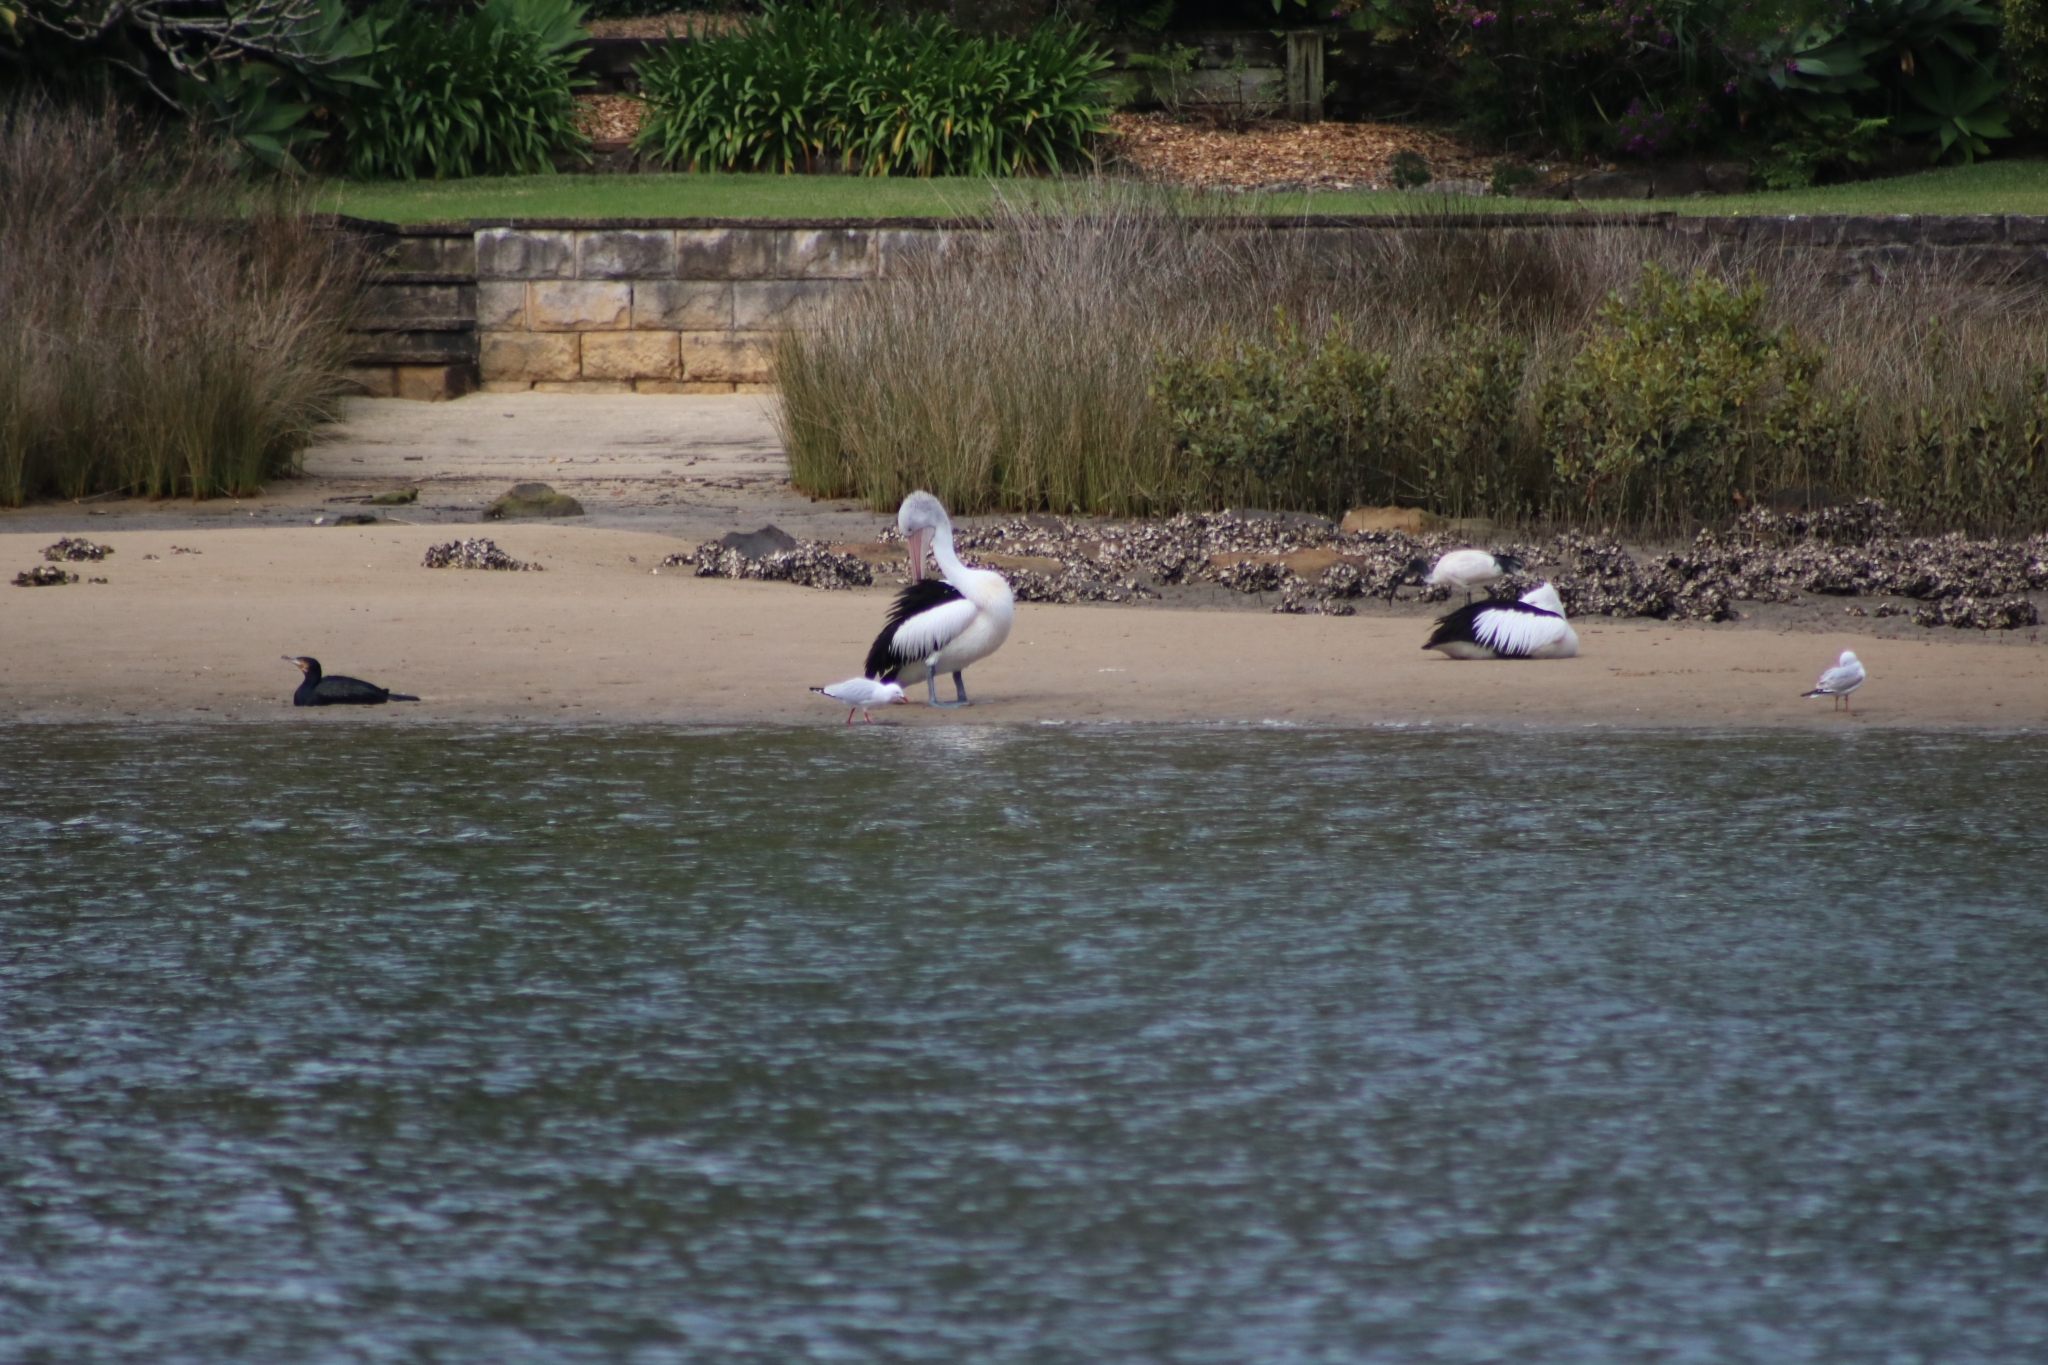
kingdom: Animalia
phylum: Chordata
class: Aves
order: Pelecaniformes
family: Pelecanidae
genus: Pelecanus
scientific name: Pelecanus conspicillatus
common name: Australian pelican
